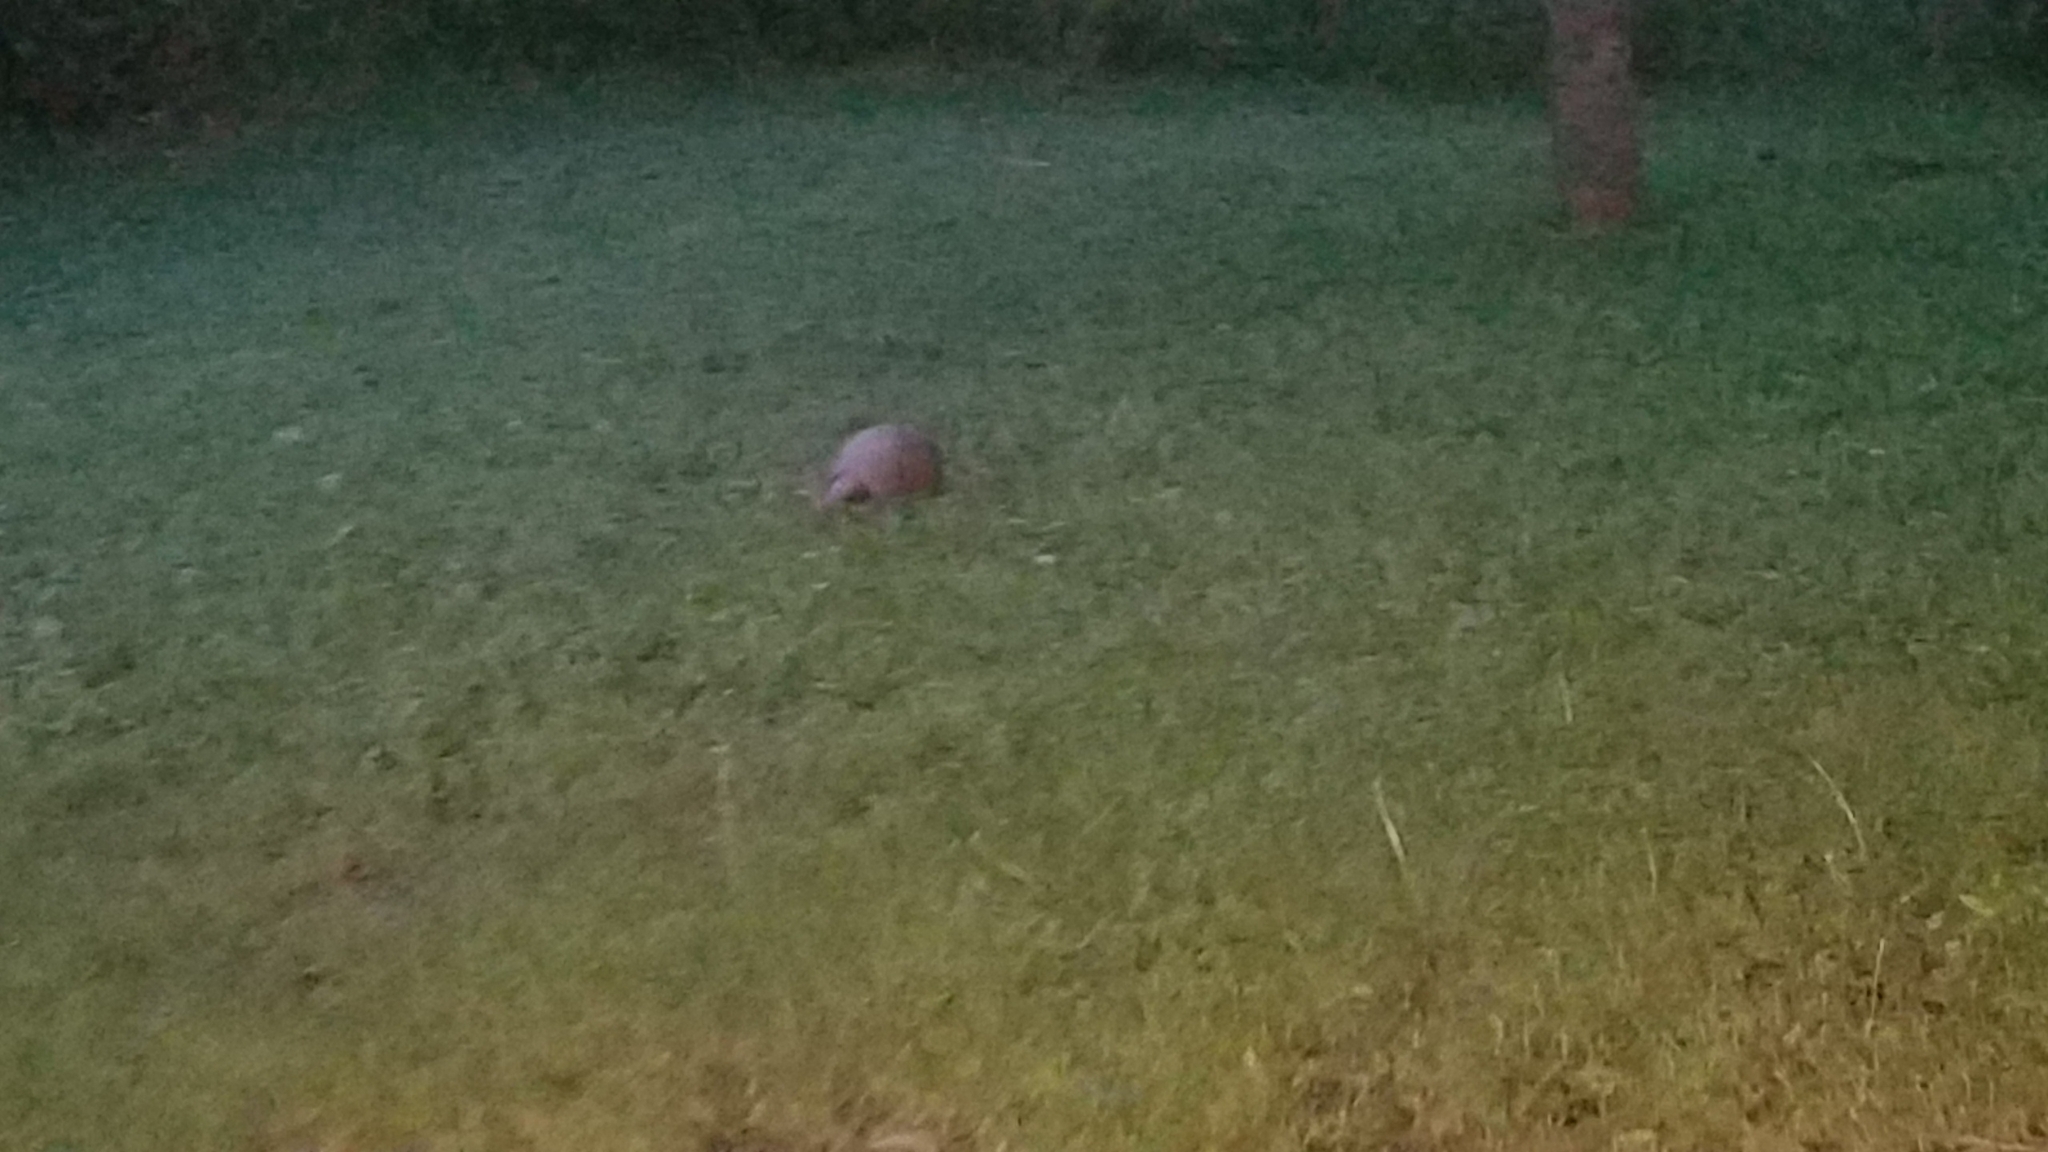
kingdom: Animalia
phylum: Chordata
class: Mammalia
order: Cingulata
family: Dasypodidae
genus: Dasypus
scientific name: Dasypus novemcinctus
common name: Nine-banded armadillo
